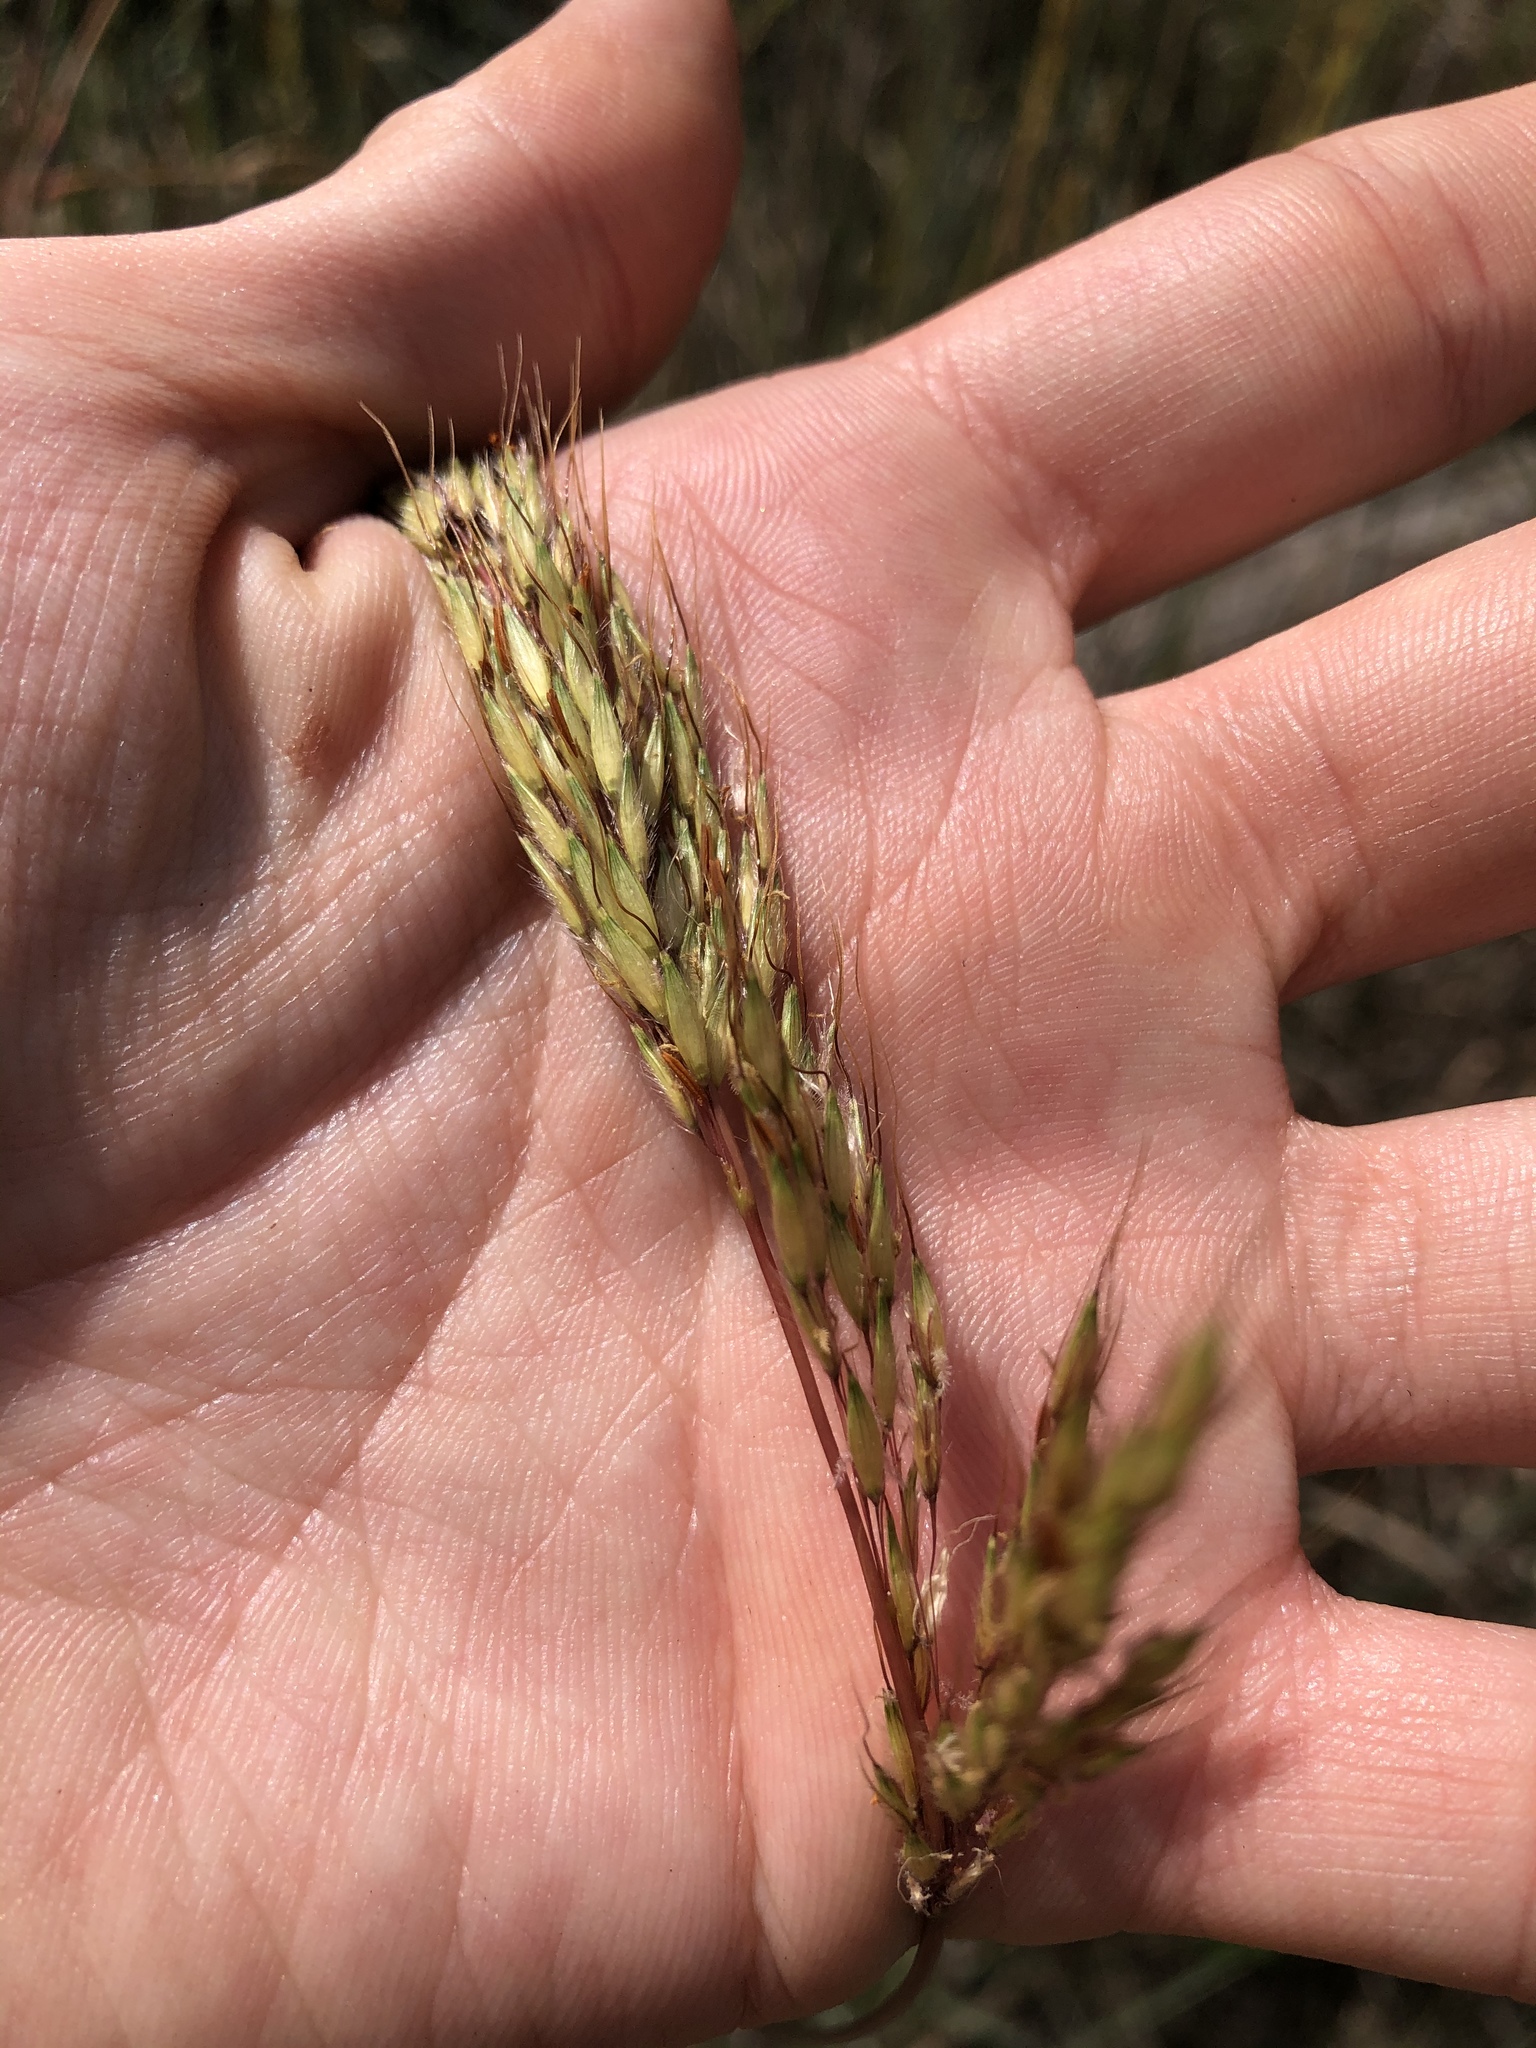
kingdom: Plantae
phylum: Tracheophyta
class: Liliopsida
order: Poales
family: Poaceae
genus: Sorghastrum
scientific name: Sorghastrum nutans
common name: Indian grass
